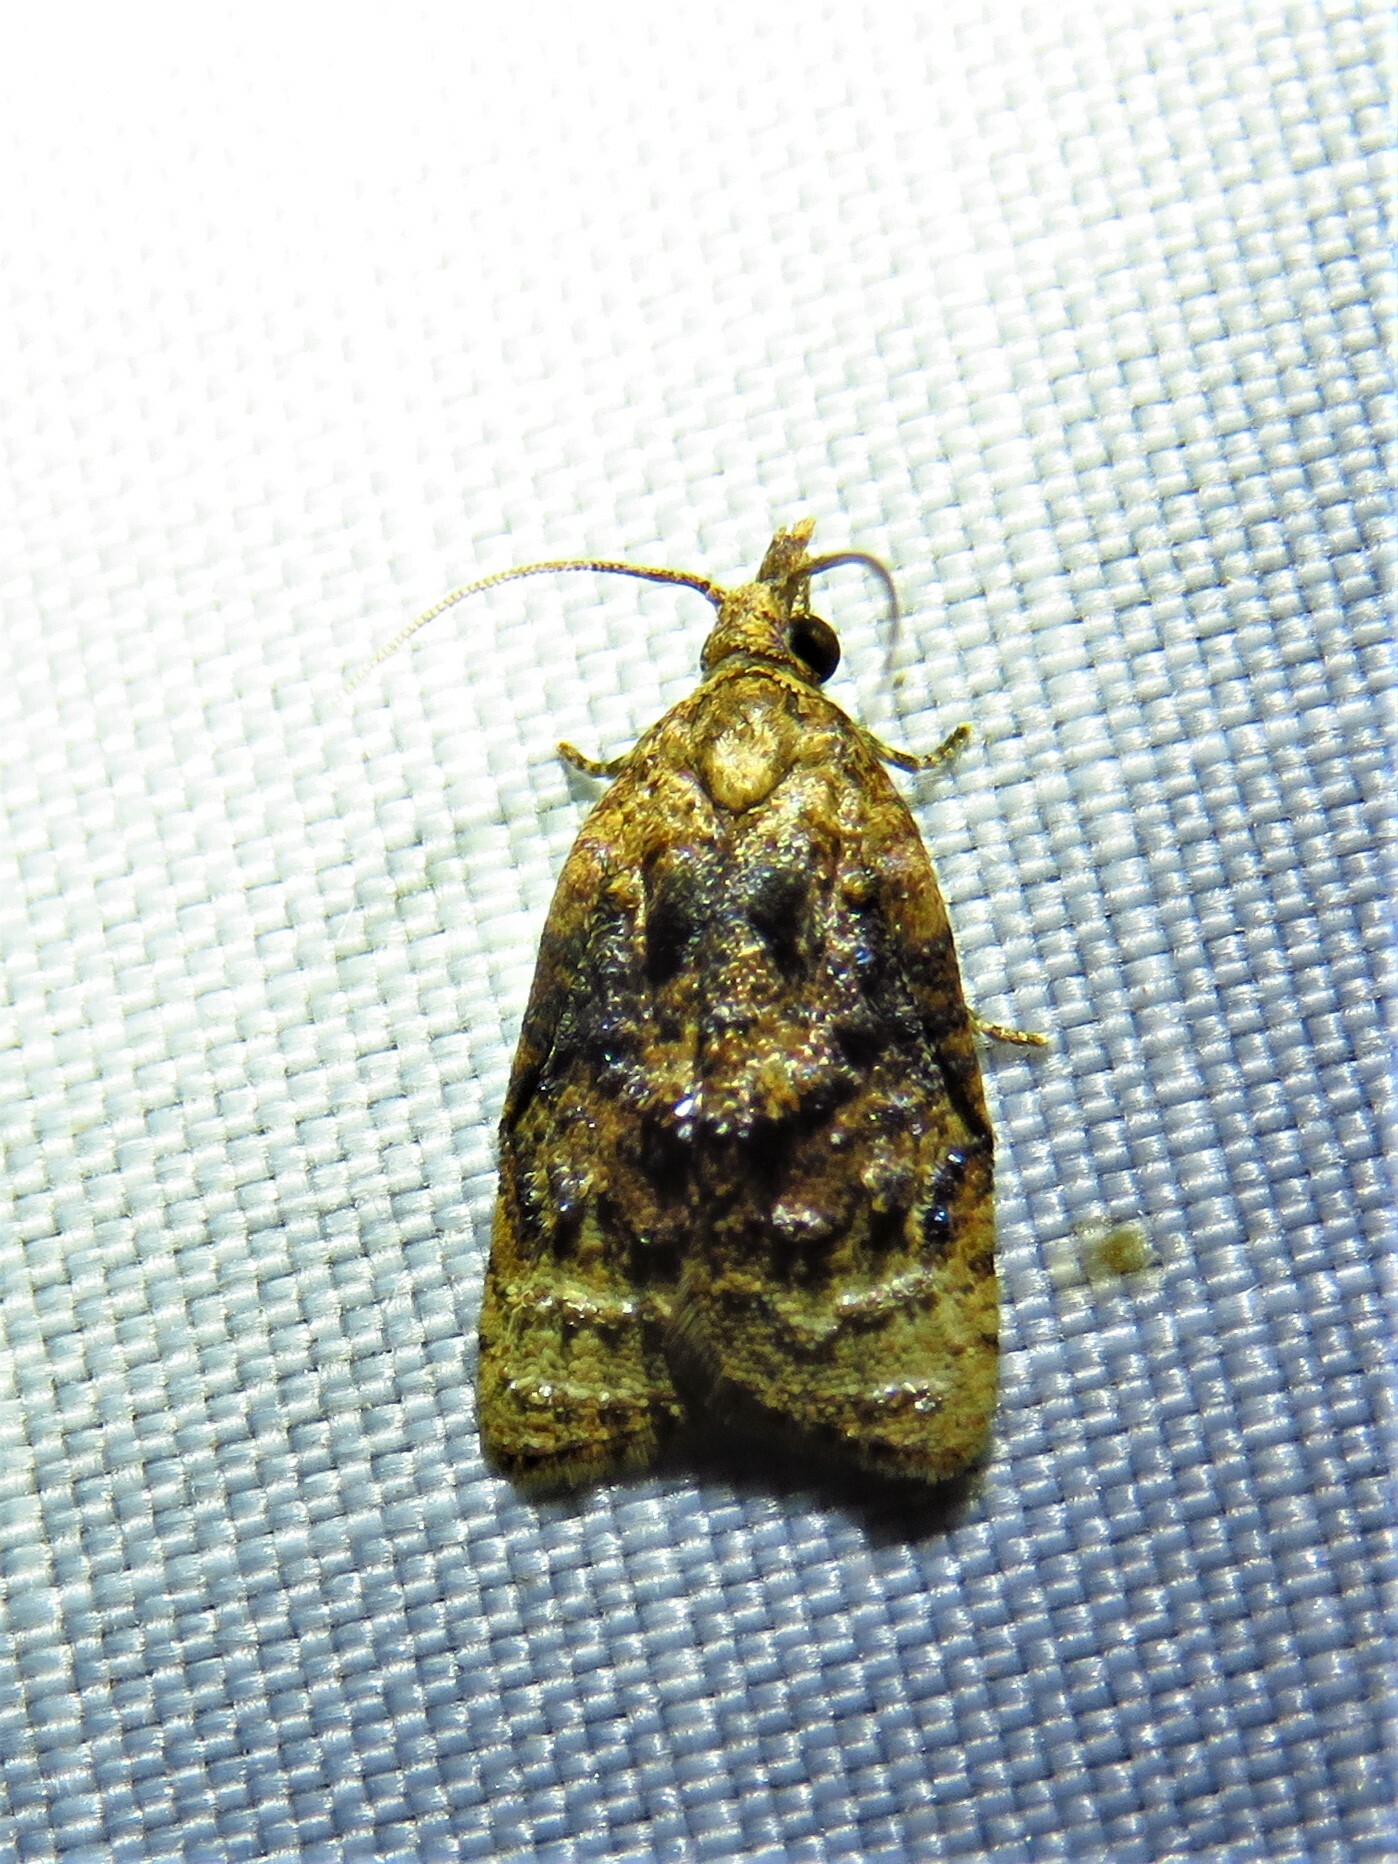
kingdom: Animalia
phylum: Arthropoda
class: Insecta
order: Lepidoptera
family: Tortricidae
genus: Platynota
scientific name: Platynota flavedana
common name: Black-shaded platynota moth
